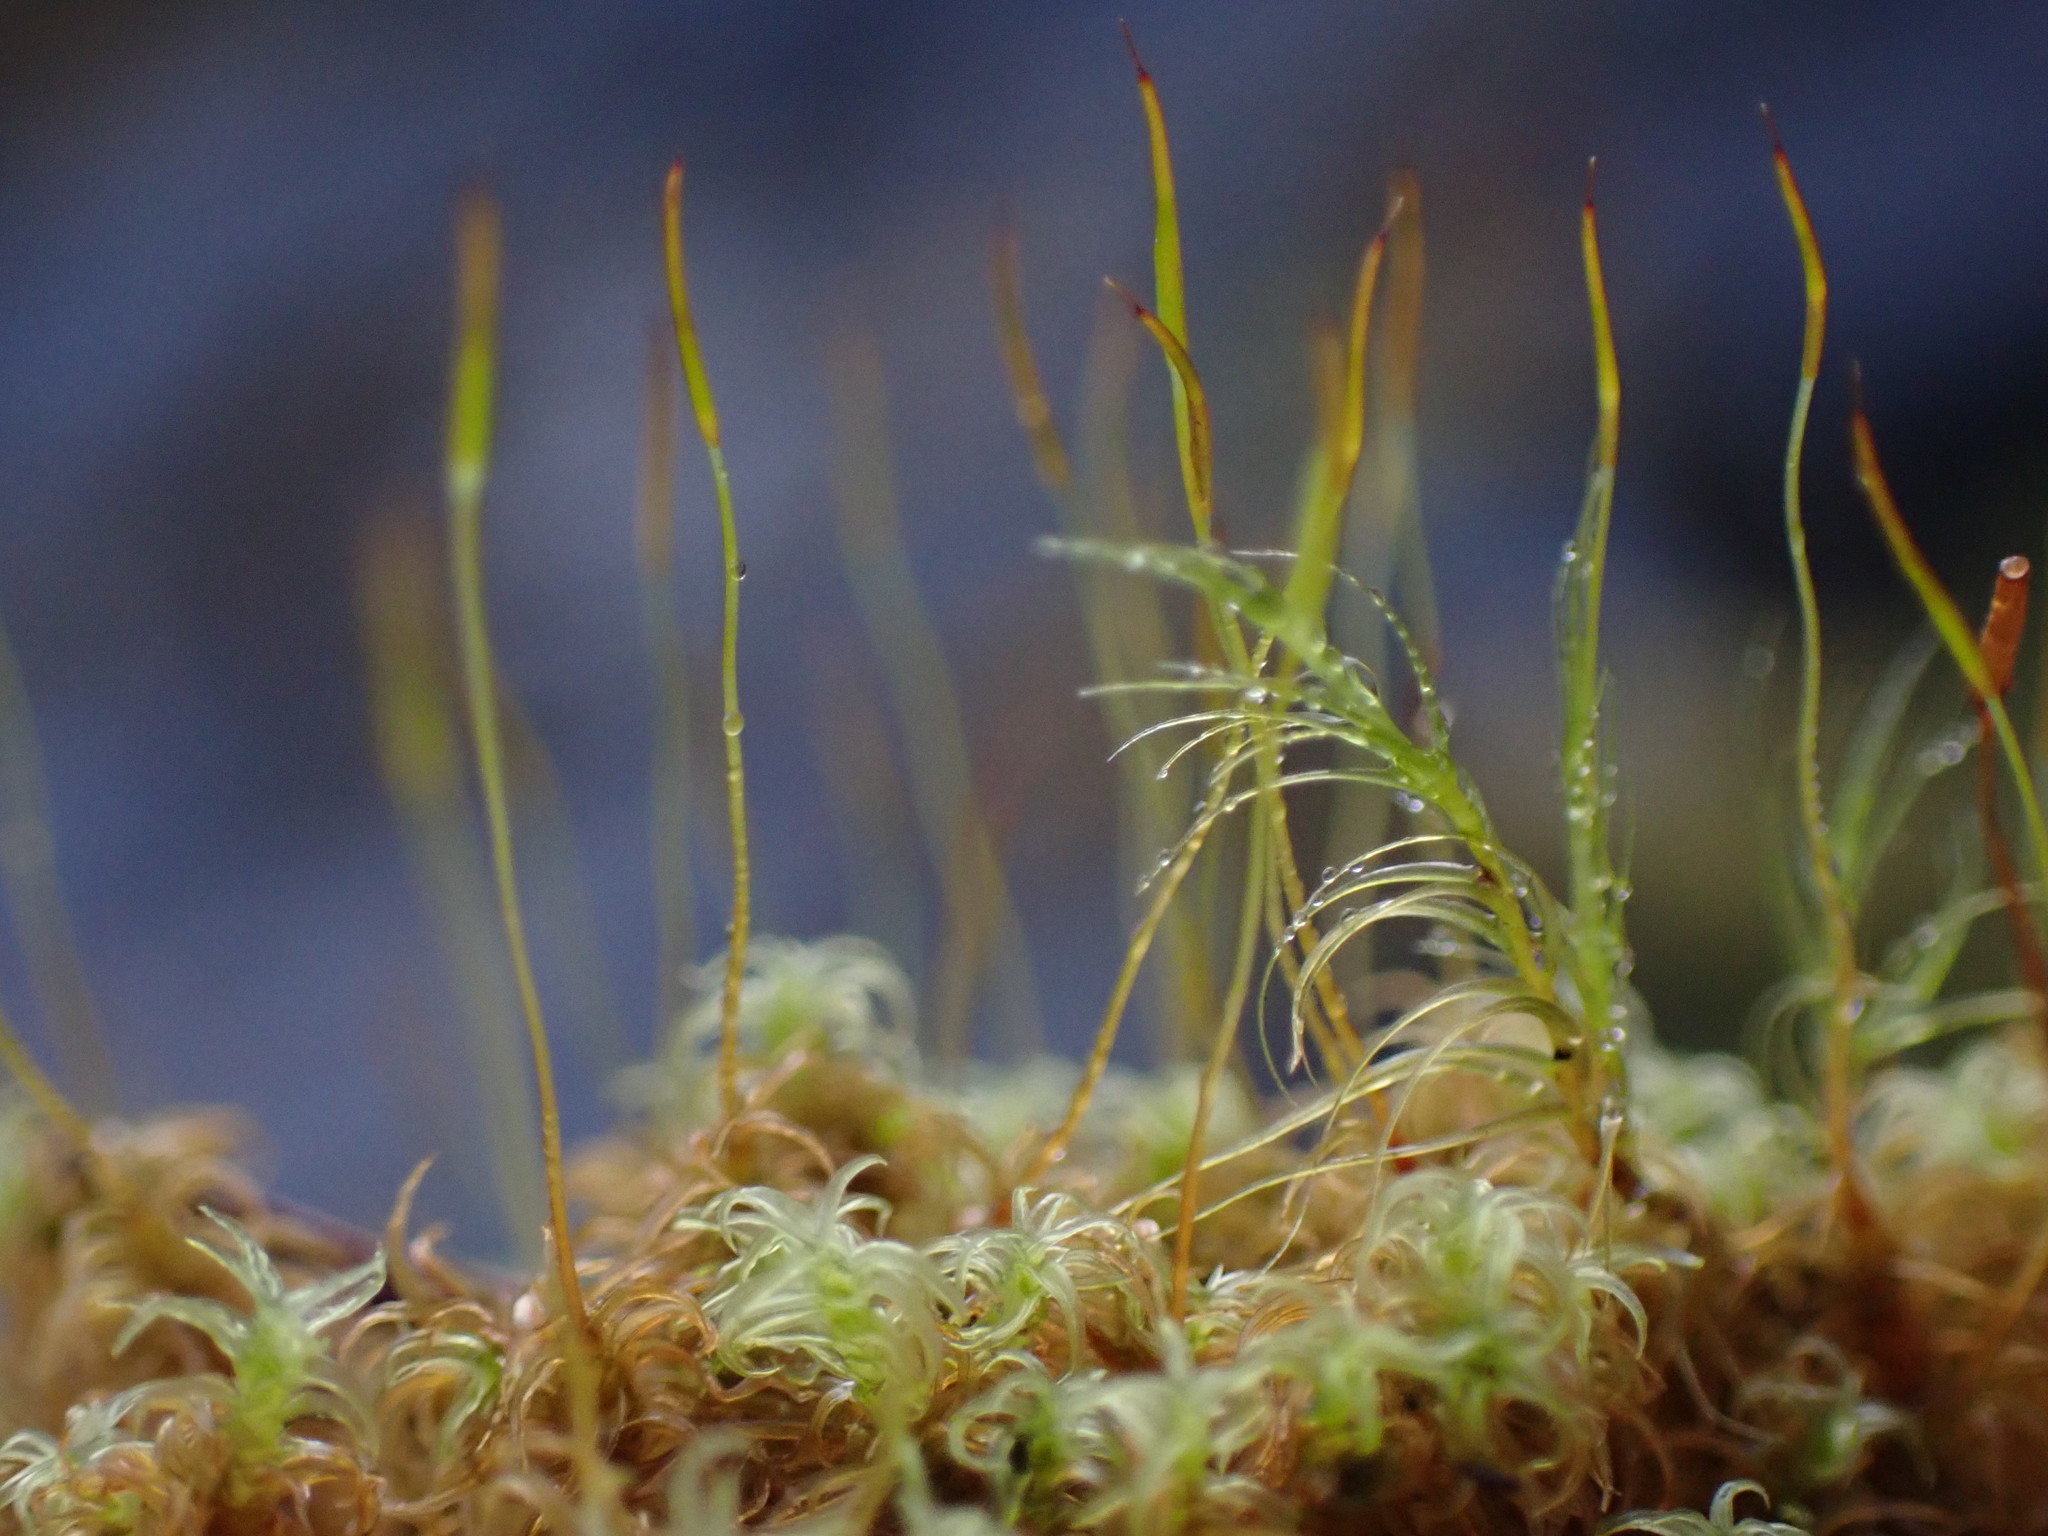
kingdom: Plantae
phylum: Bryophyta
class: Bryopsida
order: Pottiales
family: Pottiaceae
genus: Geheebia
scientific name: Geheebia ferruginea
